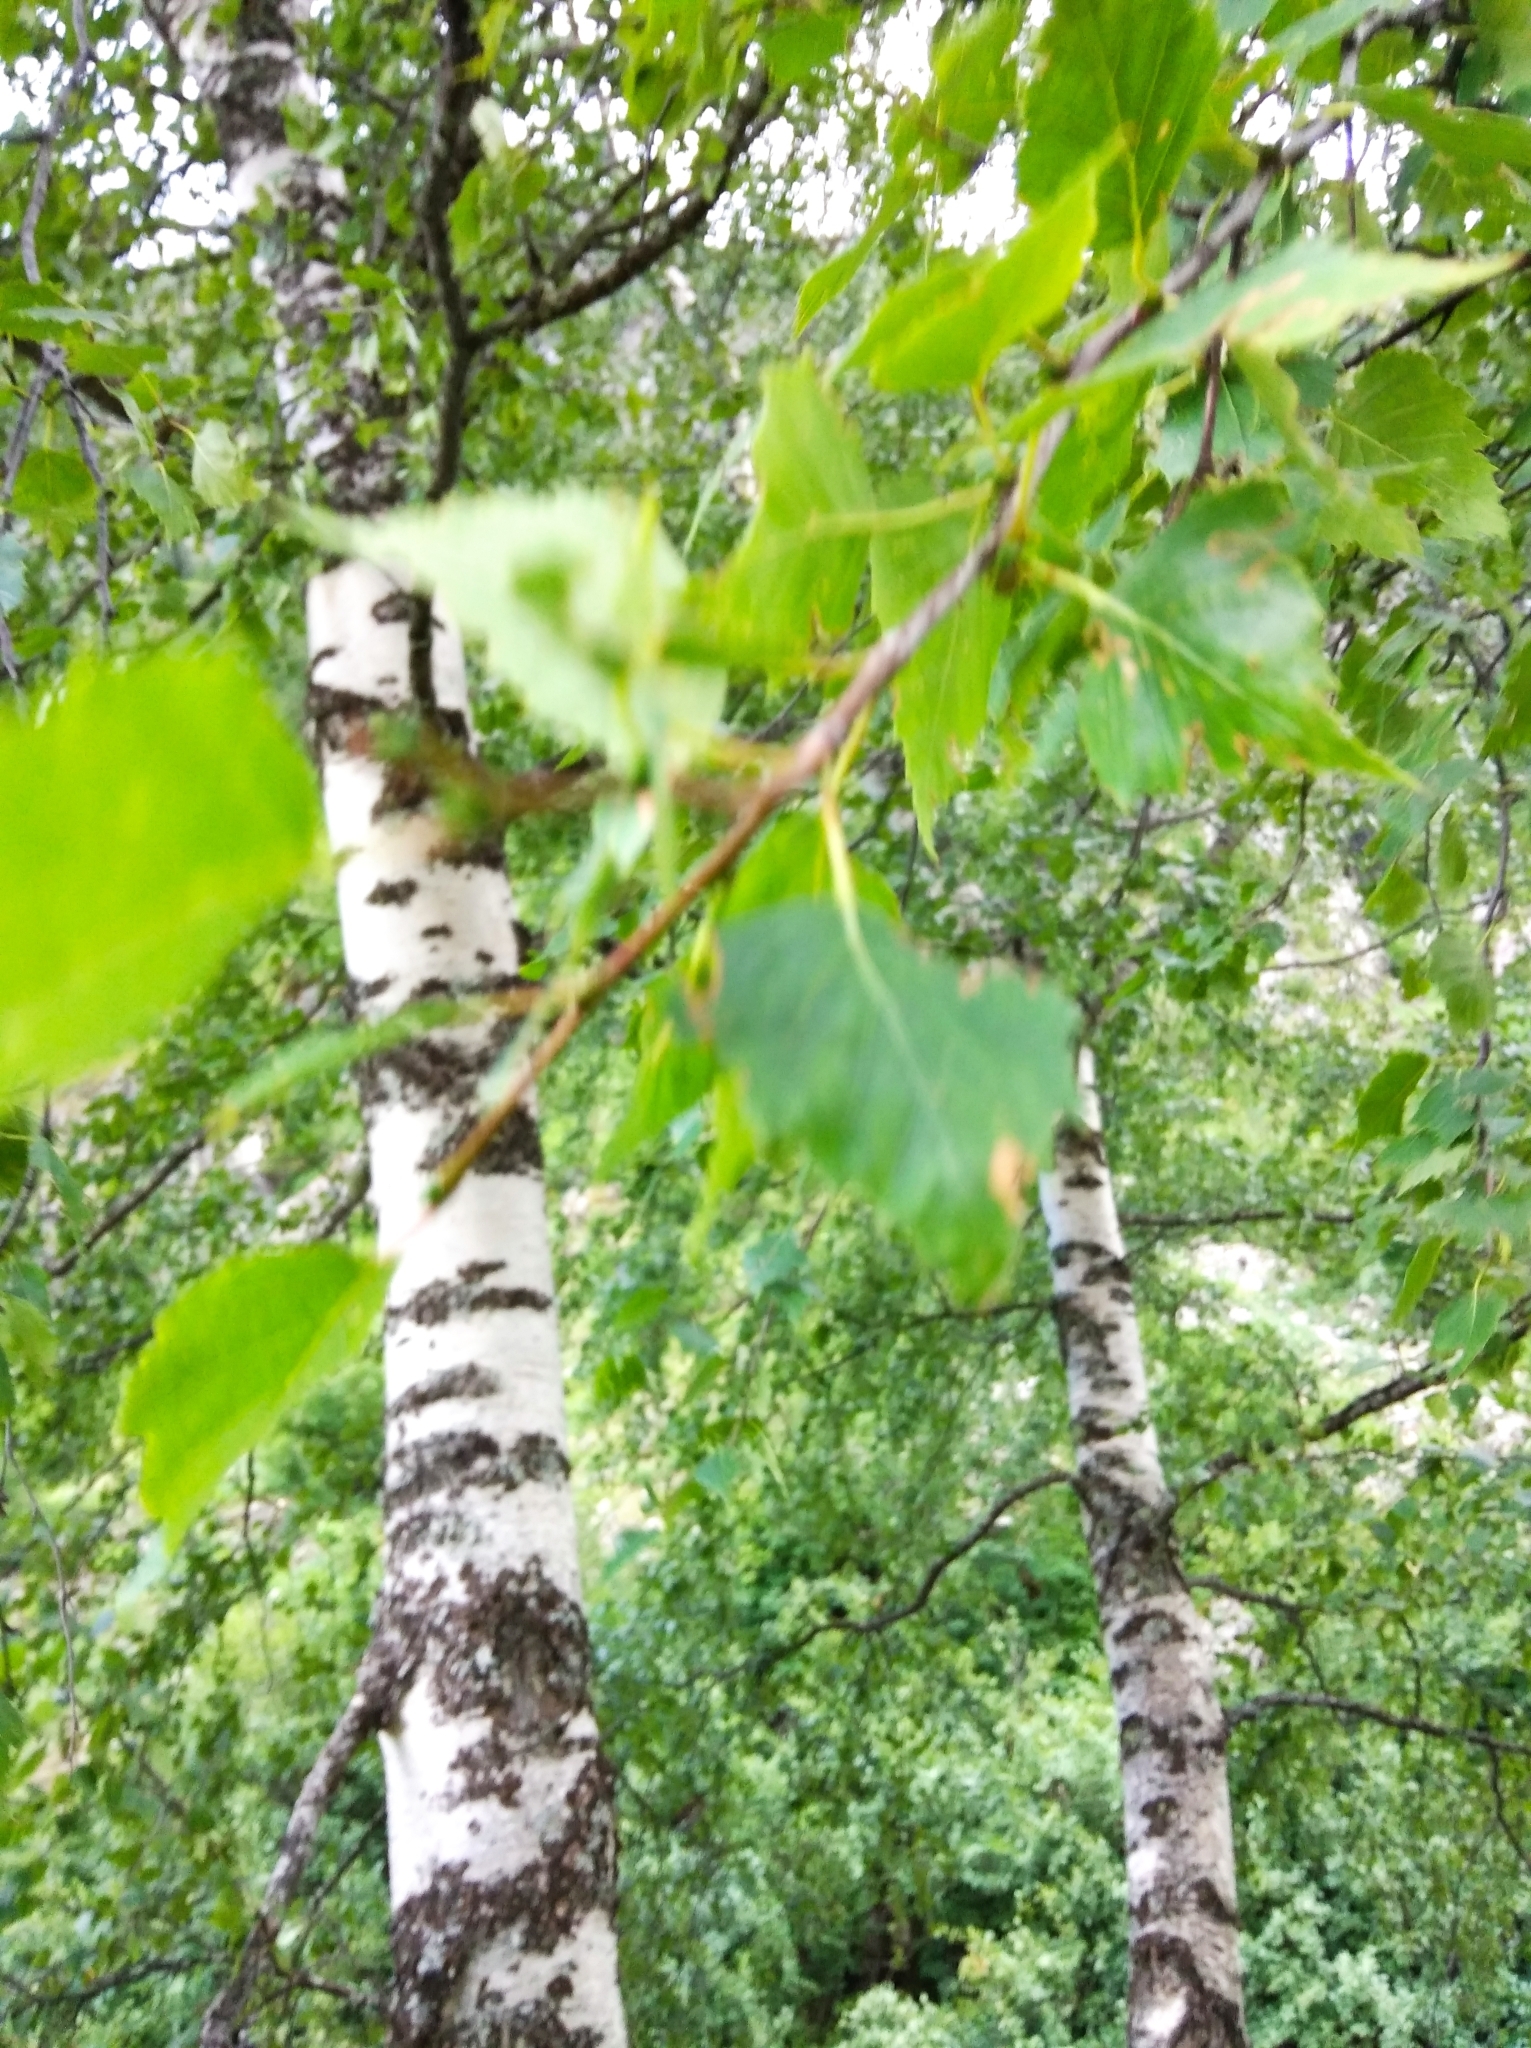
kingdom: Plantae
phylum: Tracheophyta
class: Magnoliopsida
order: Fagales
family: Betulaceae
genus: Betula
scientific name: Betula pendula
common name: Silver birch
